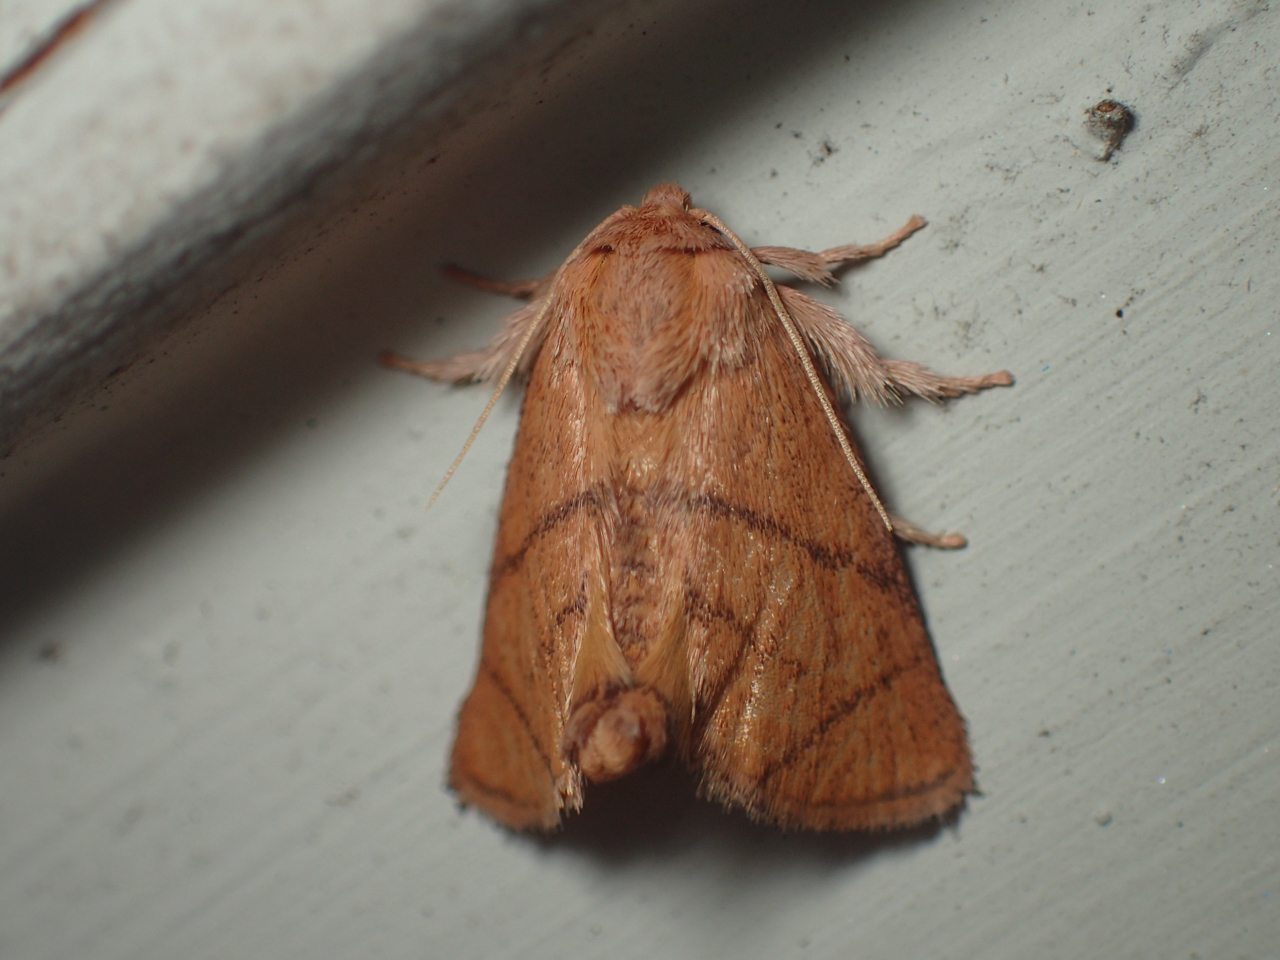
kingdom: Animalia
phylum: Arthropoda
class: Insecta
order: Lepidoptera
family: Limacodidae
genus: Apoda
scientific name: Apoda y-inversa
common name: Yellow-collared slug moth
